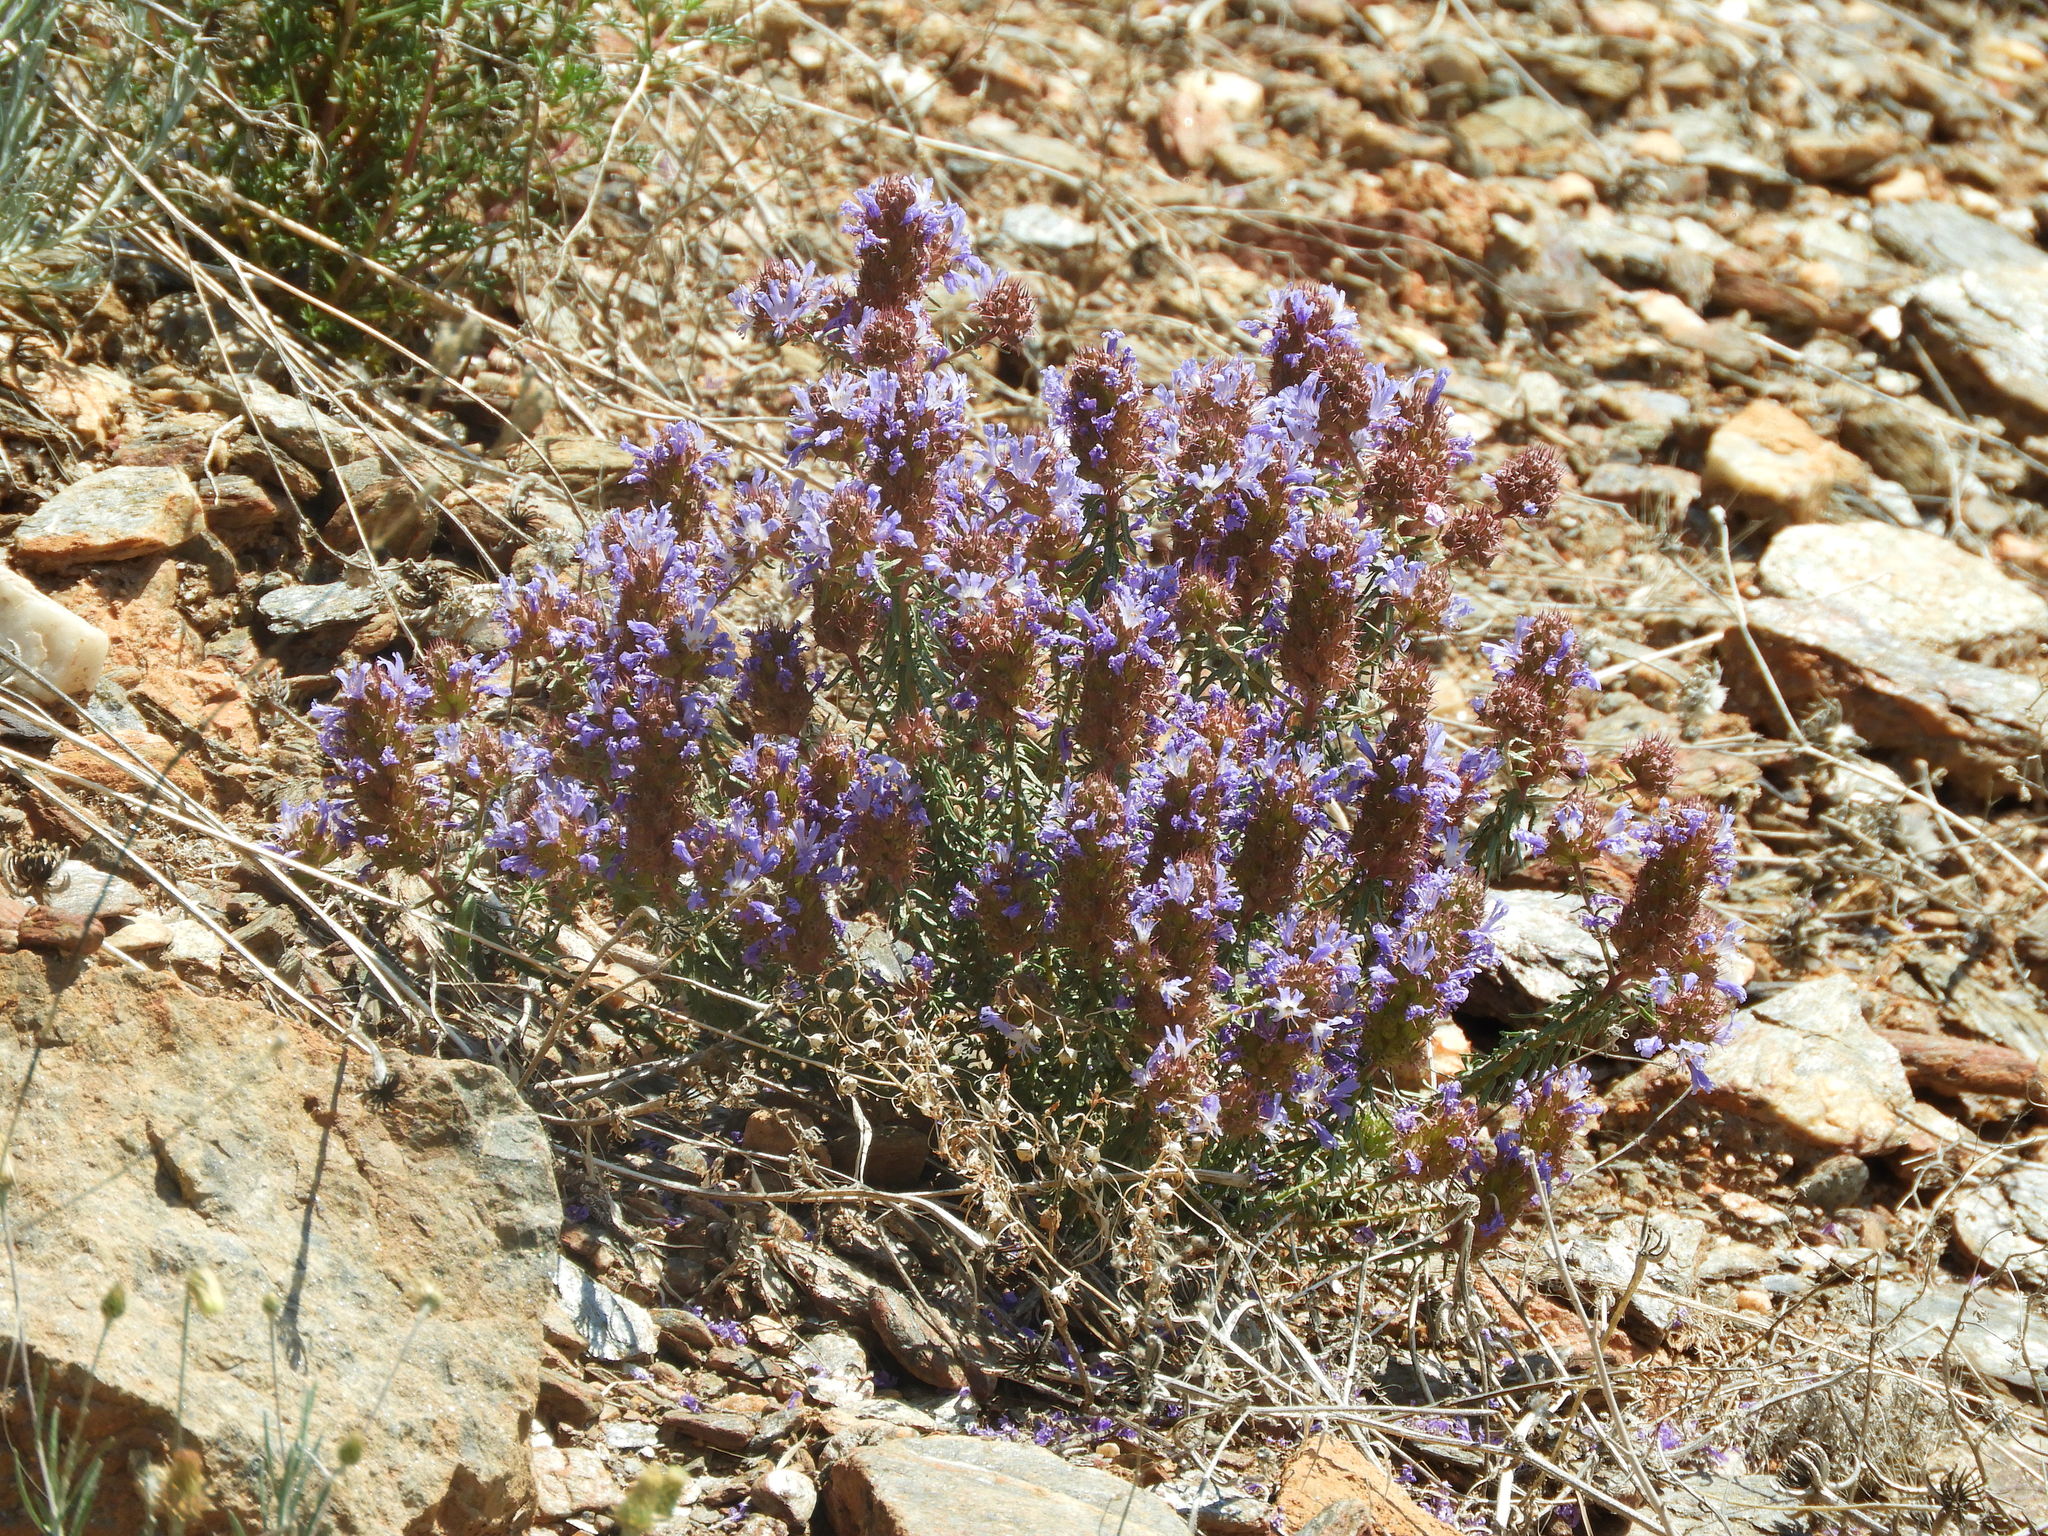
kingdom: Plantae
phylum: Tracheophyta
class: Magnoliopsida
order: Ericales
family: Primulaceae
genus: Coris
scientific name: Coris monspeliensis
